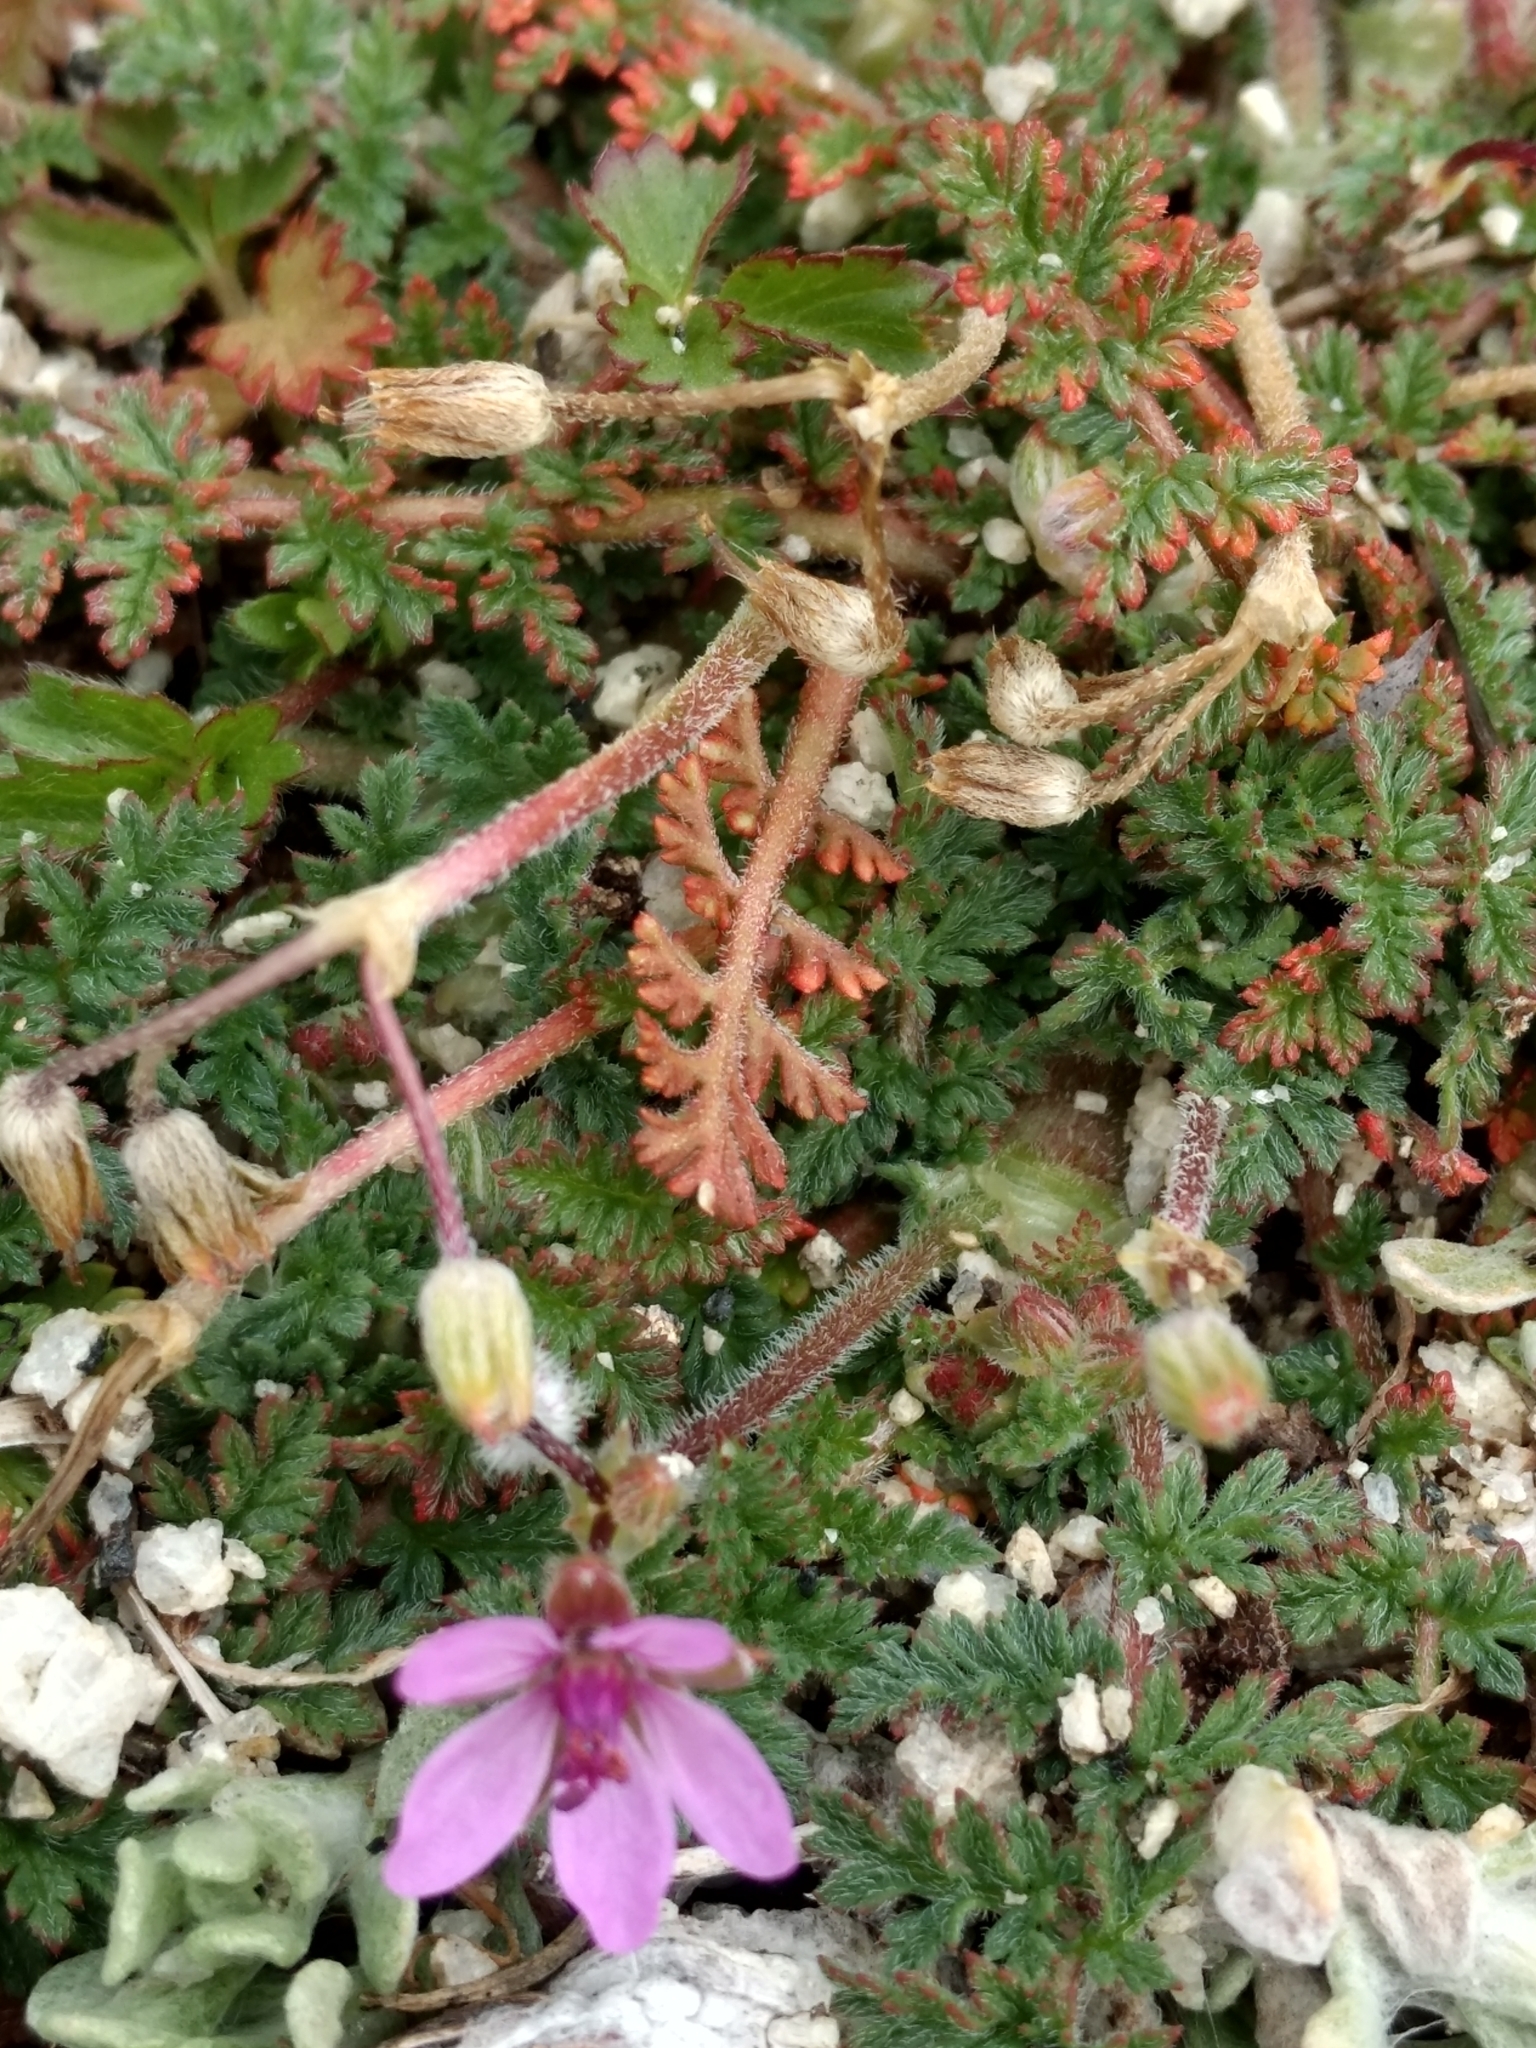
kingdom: Plantae
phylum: Tracheophyta
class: Magnoliopsida
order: Geraniales
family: Geraniaceae
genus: Erodium
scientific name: Erodium cicutarium
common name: Common stork's-bill
